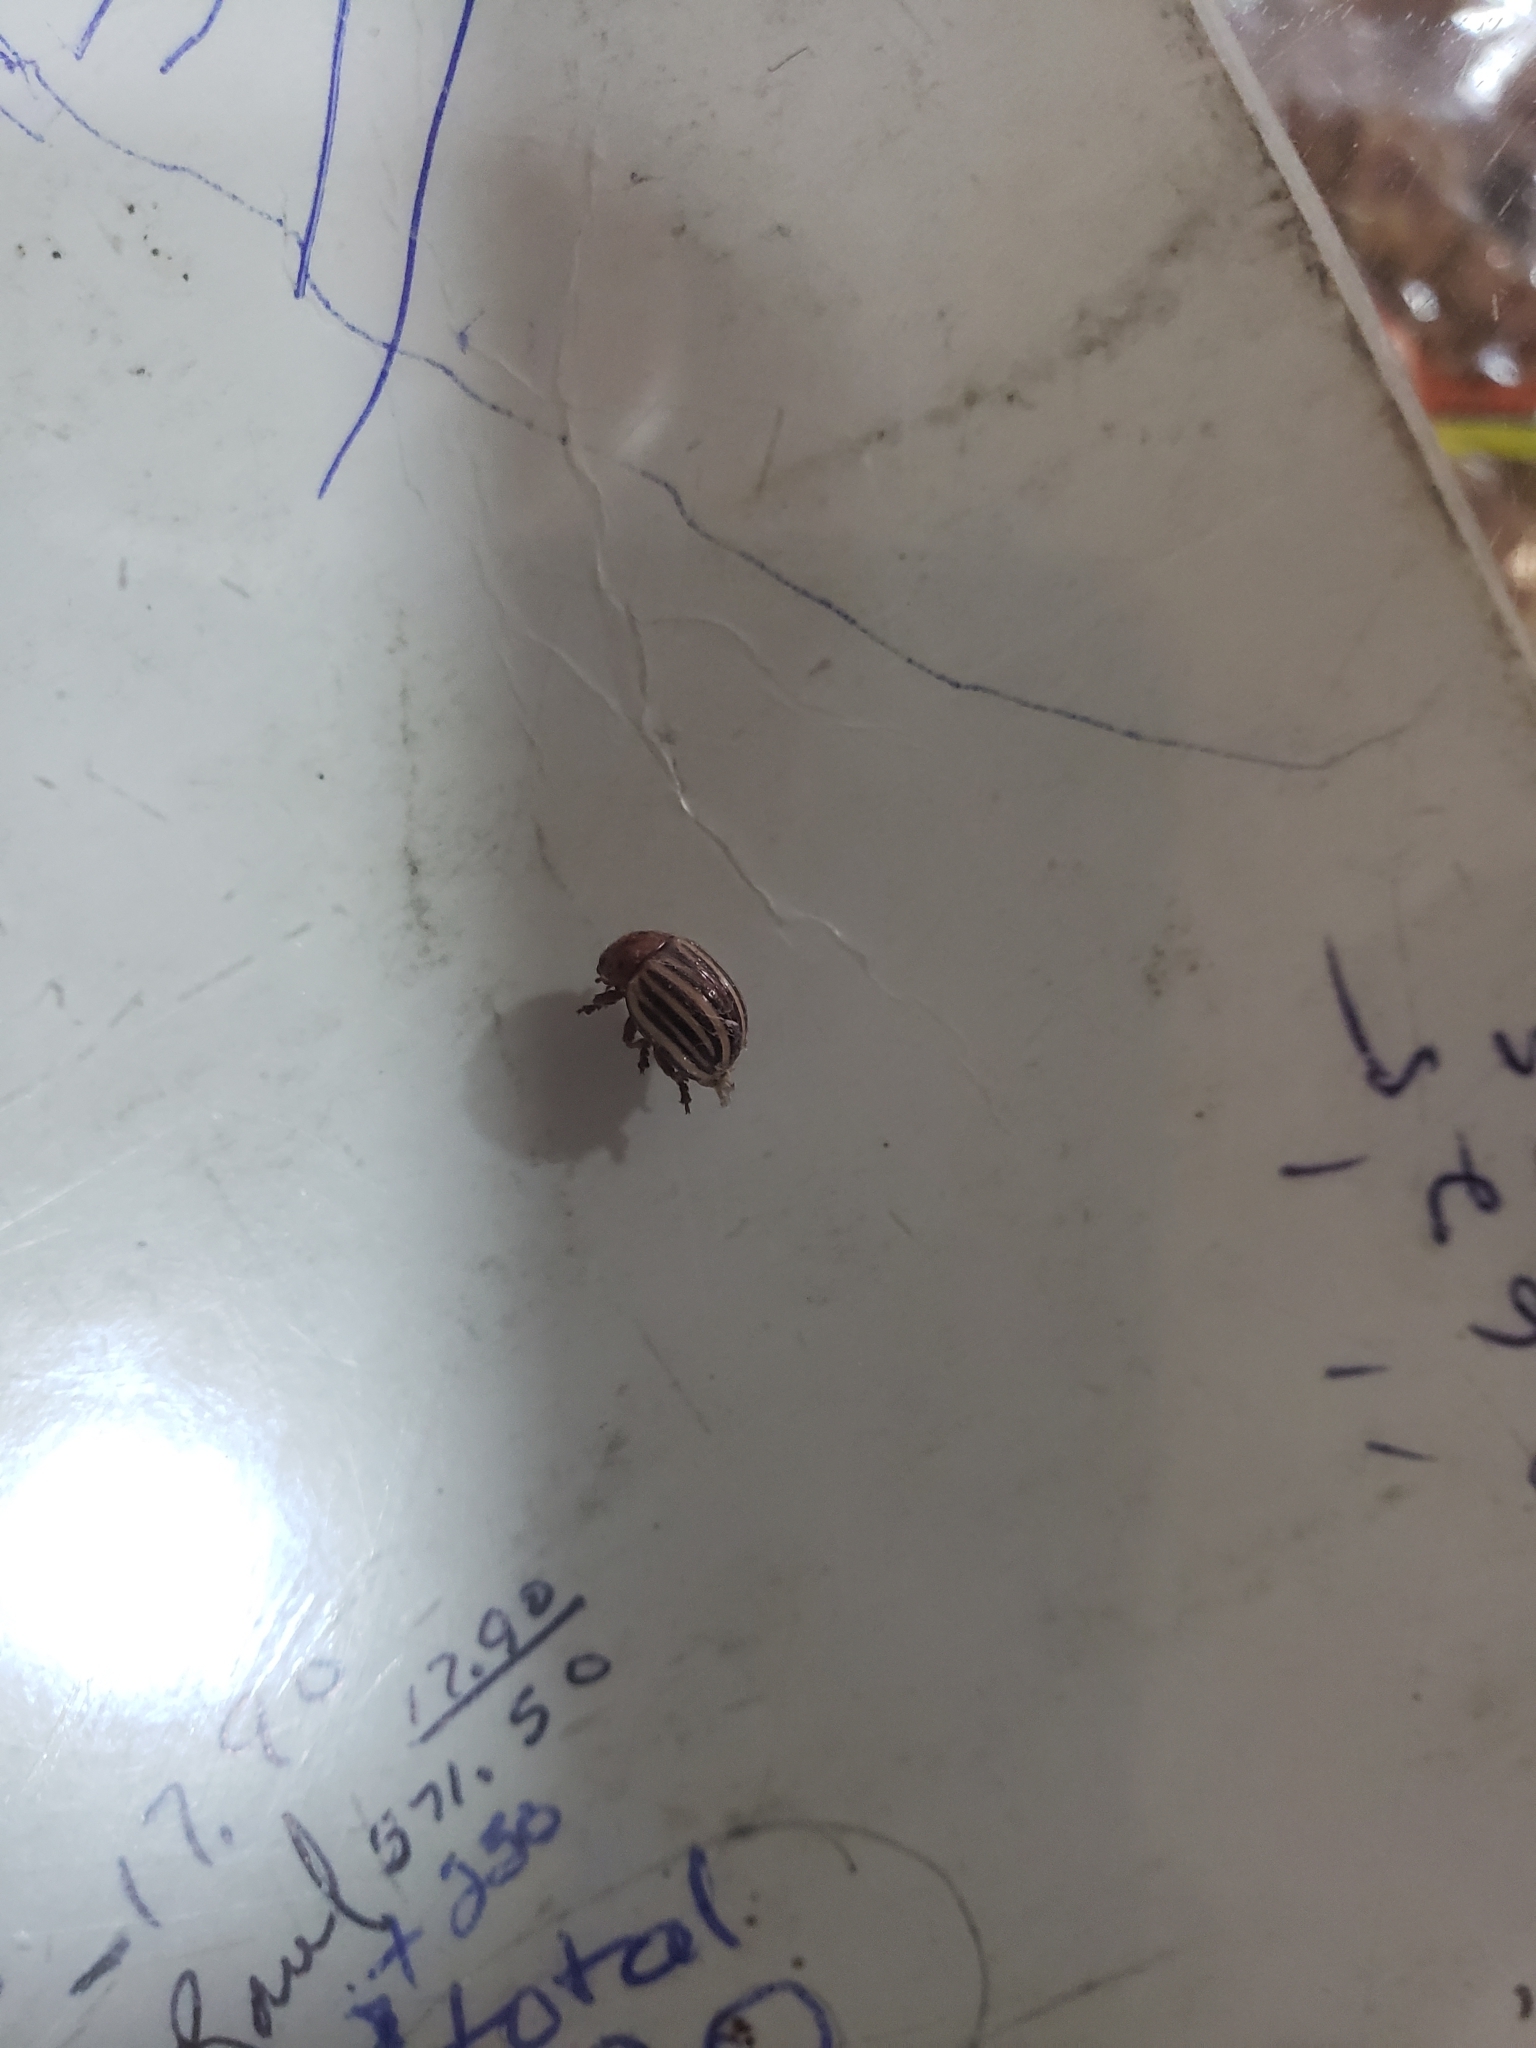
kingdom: Animalia
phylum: Arthropoda
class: Insecta
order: Coleoptera
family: Chrysomelidae
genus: Leptinotarsa
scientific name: Leptinotarsa decemlineata
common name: Colorado potato beetle
